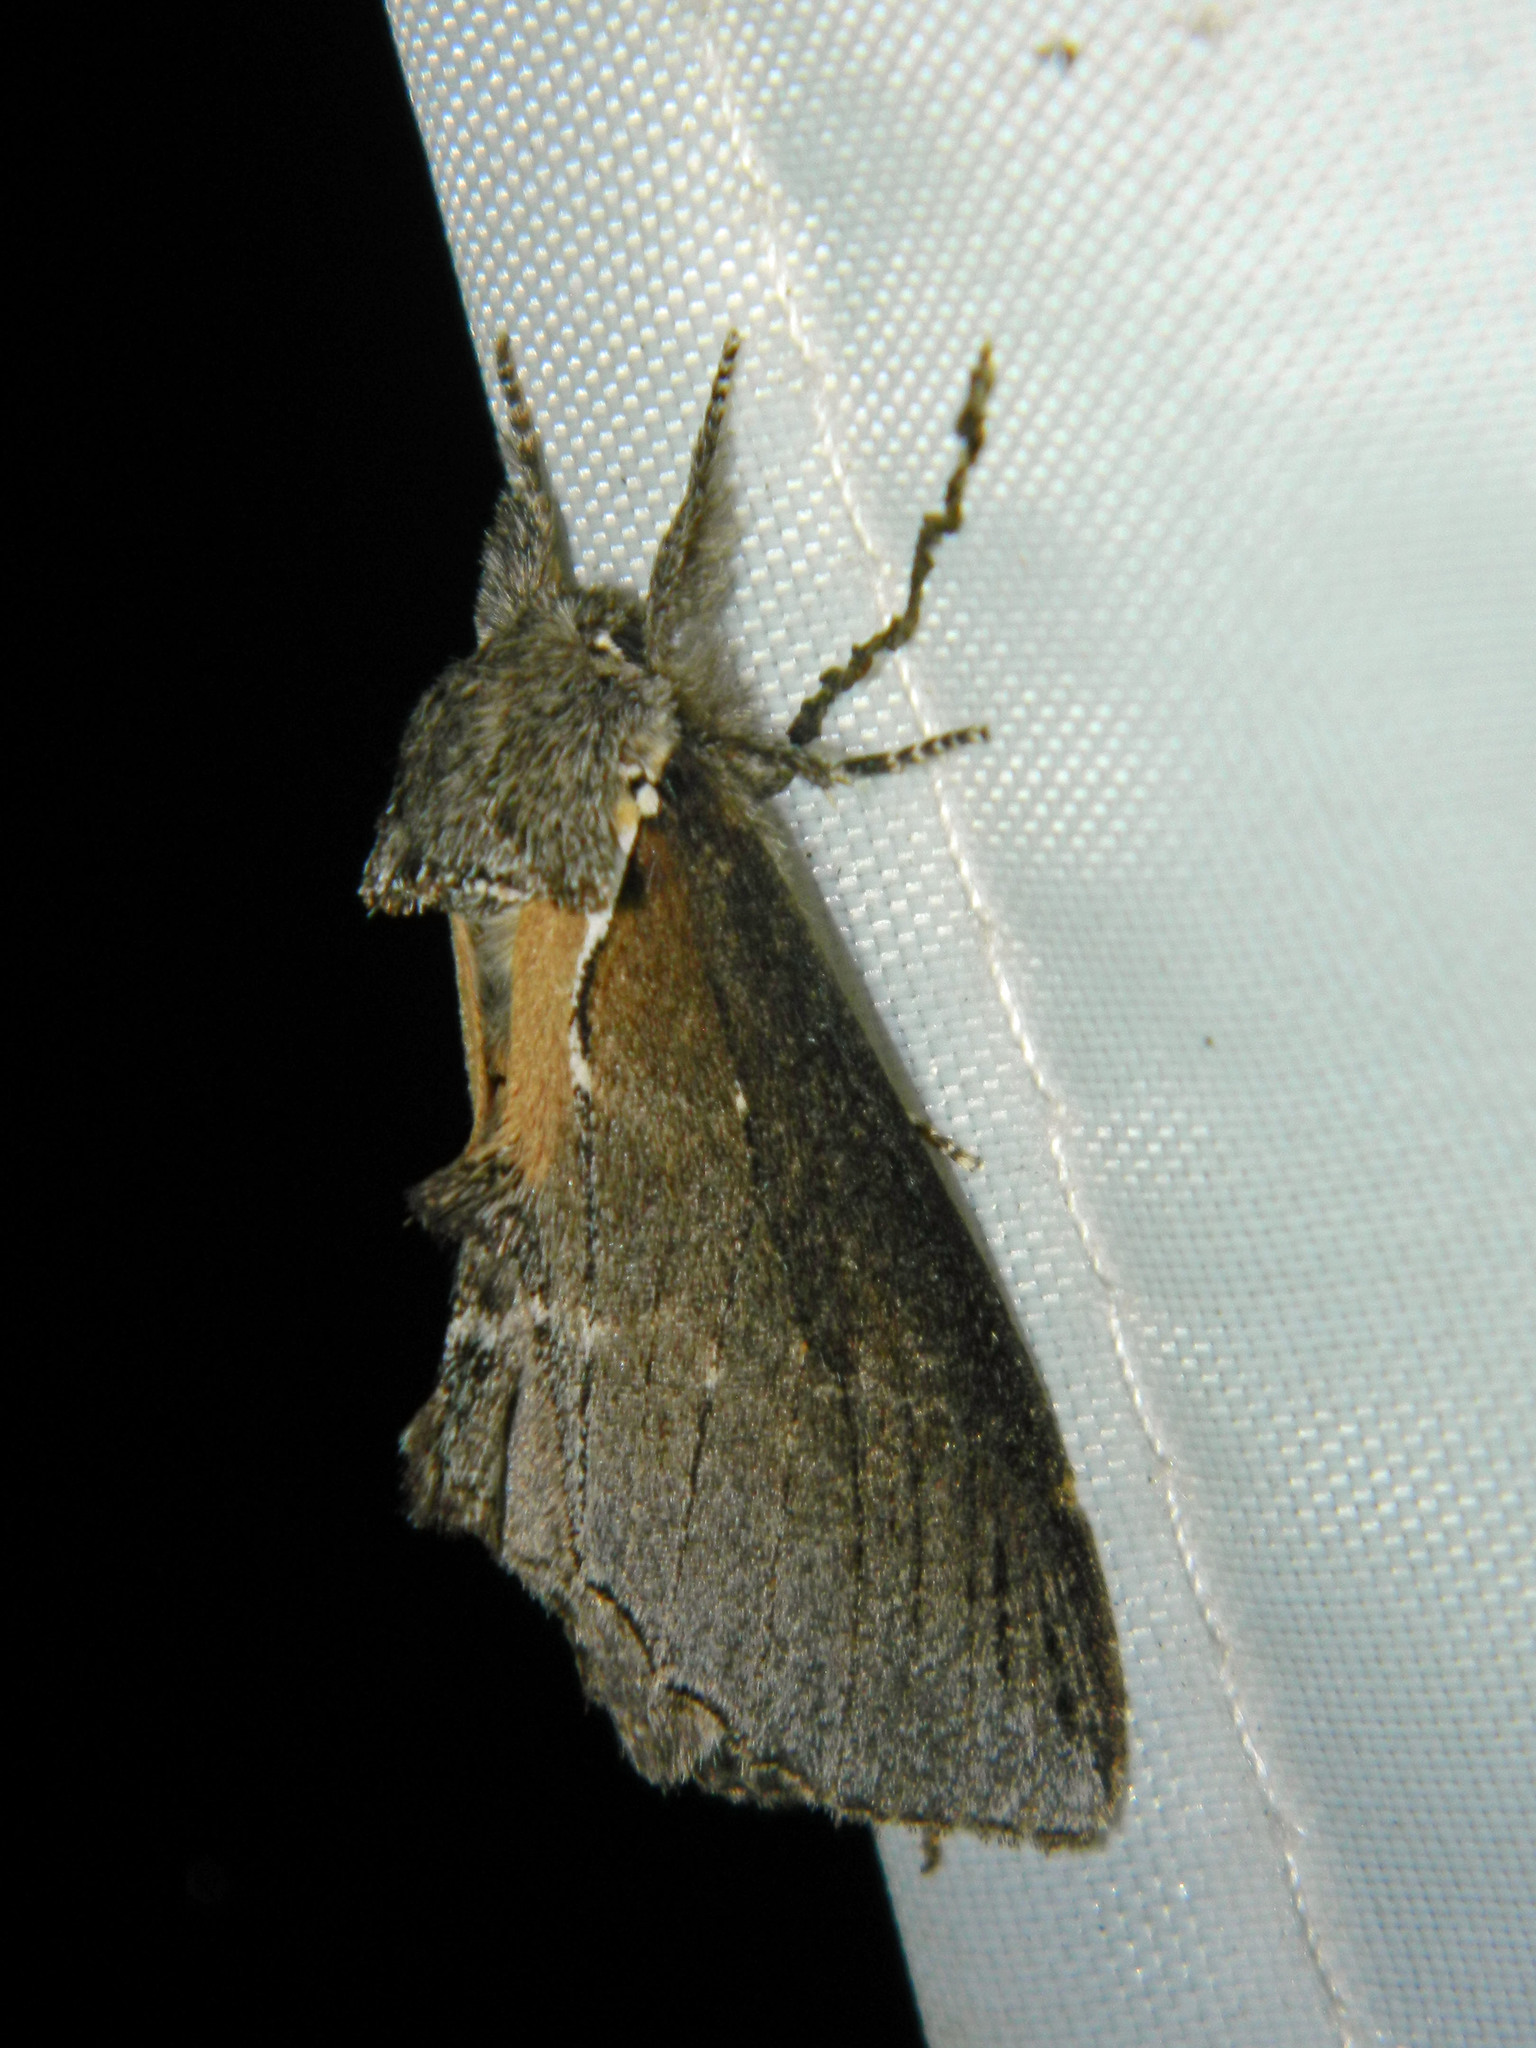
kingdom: Animalia
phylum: Arthropoda
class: Insecta
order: Lepidoptera
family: Notodontidae
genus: Pheosidea
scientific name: Pheosidea elegans
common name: Elegant prominent
